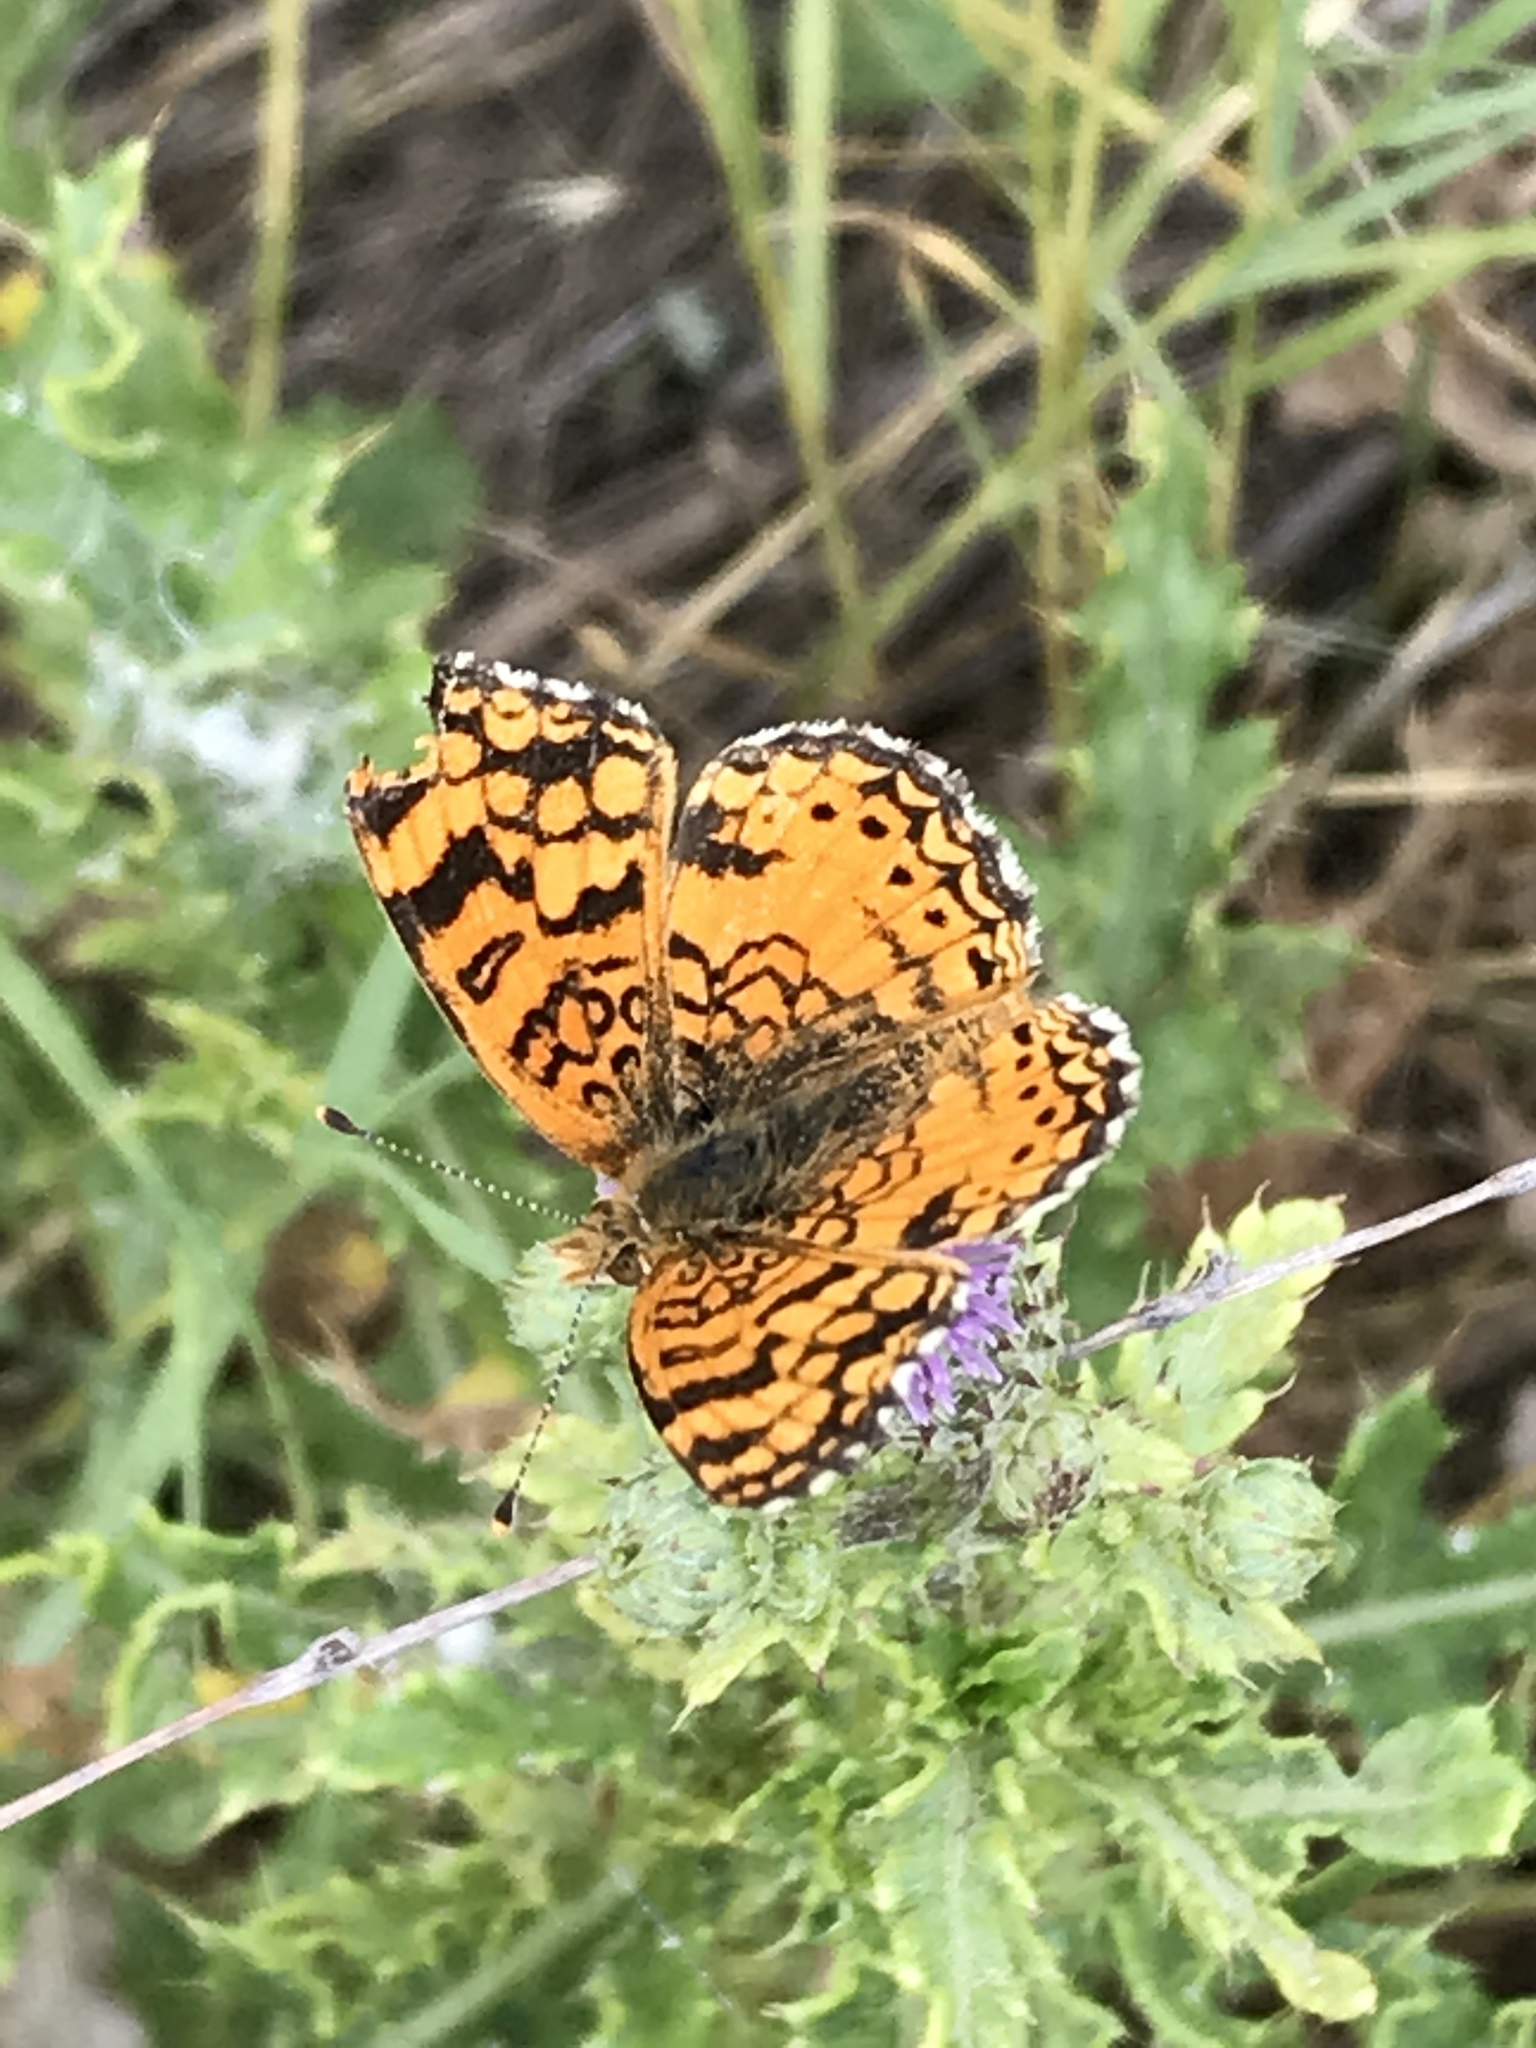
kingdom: Animalia
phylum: Arthropoda
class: Insecta
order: Lepidoptera
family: Nymphalidae
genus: Eresia
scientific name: Eresia aveyrona
